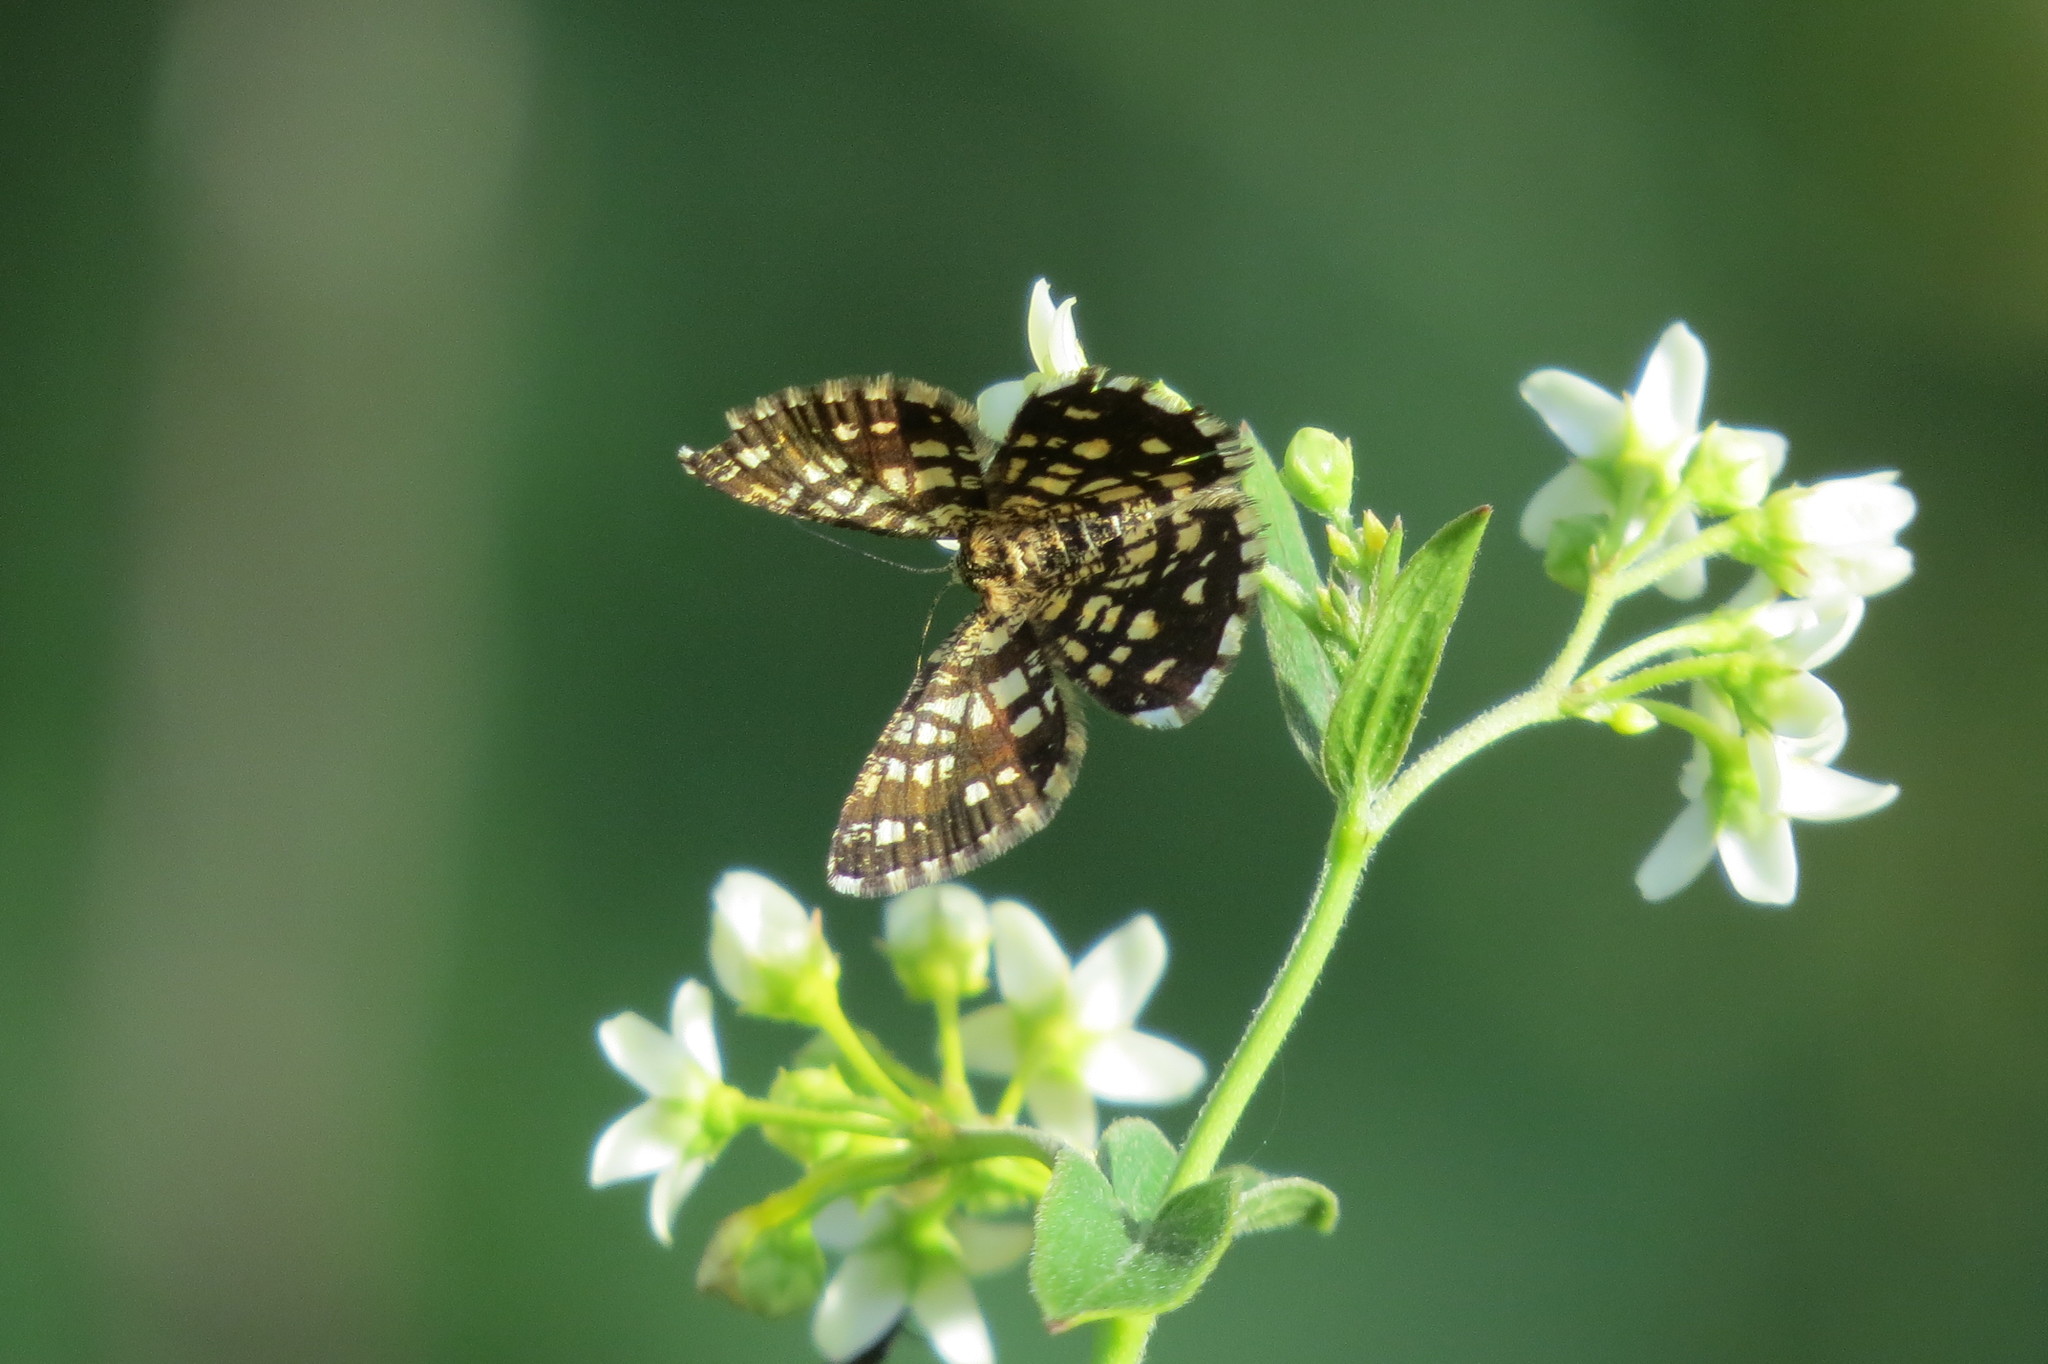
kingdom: Animalia
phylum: Arthropoda
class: Insecta
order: Lepidoptera
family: Geometridae
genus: Chiasmia
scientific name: Chiasmia clathrata
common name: Latticed heath
